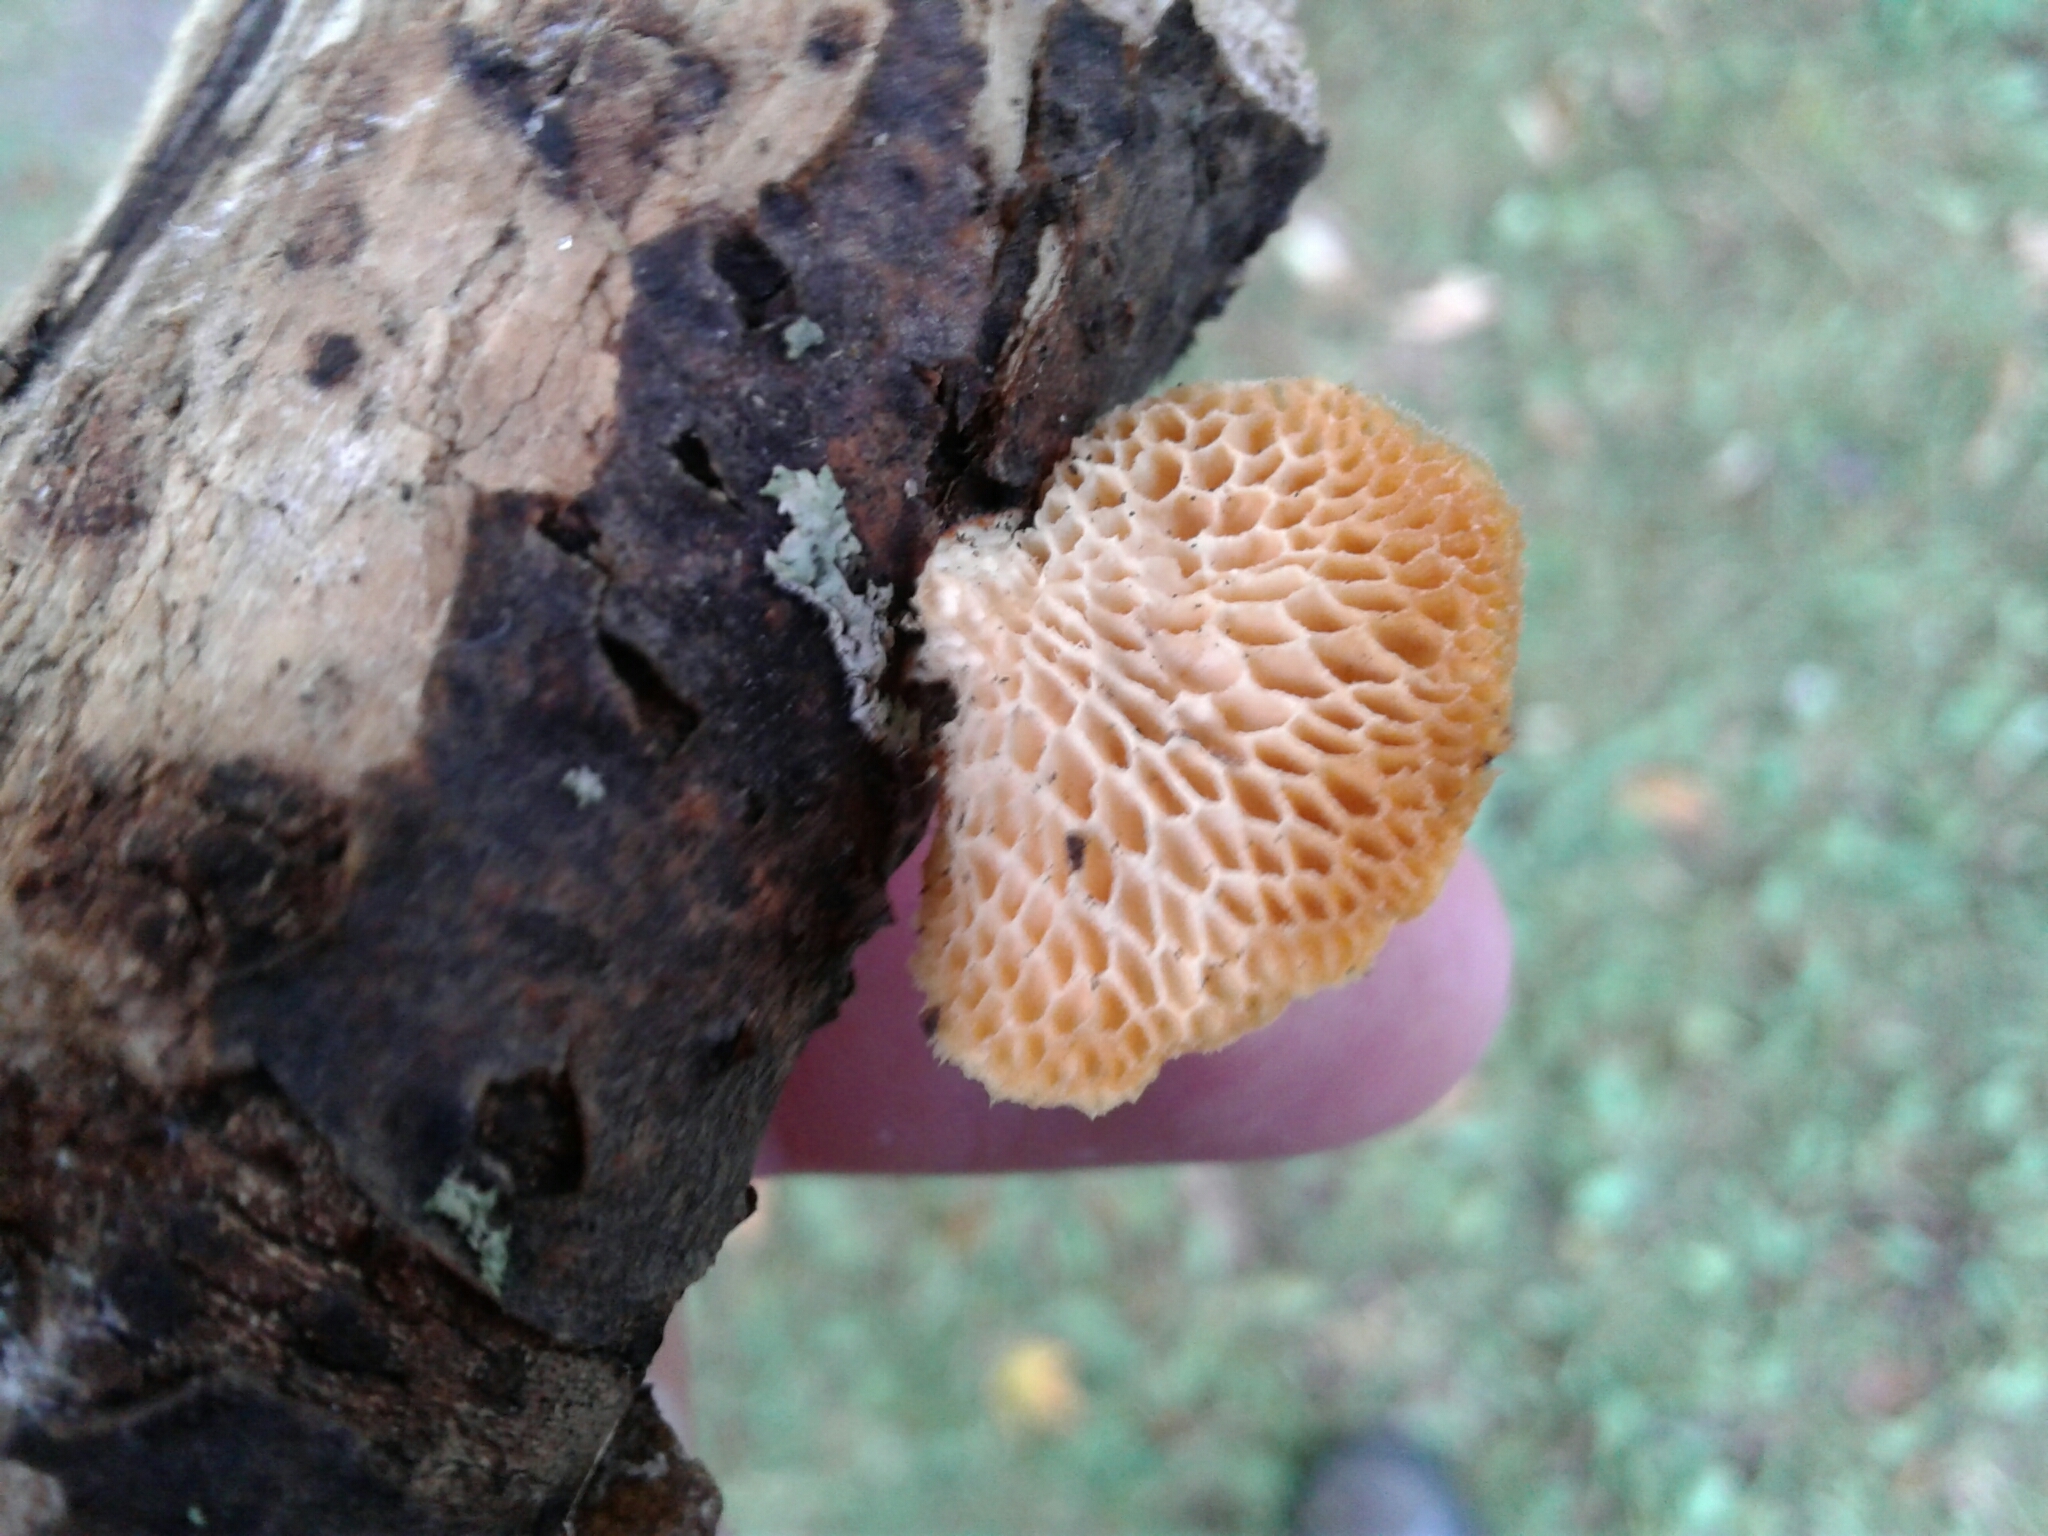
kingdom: Fungi
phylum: Basidiomycota
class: Agaricomycetes
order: Polyporales
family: Polyporaceae
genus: Neofavolus
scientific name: Neofavolus alveolaris
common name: Hexagonal-pored polypore
